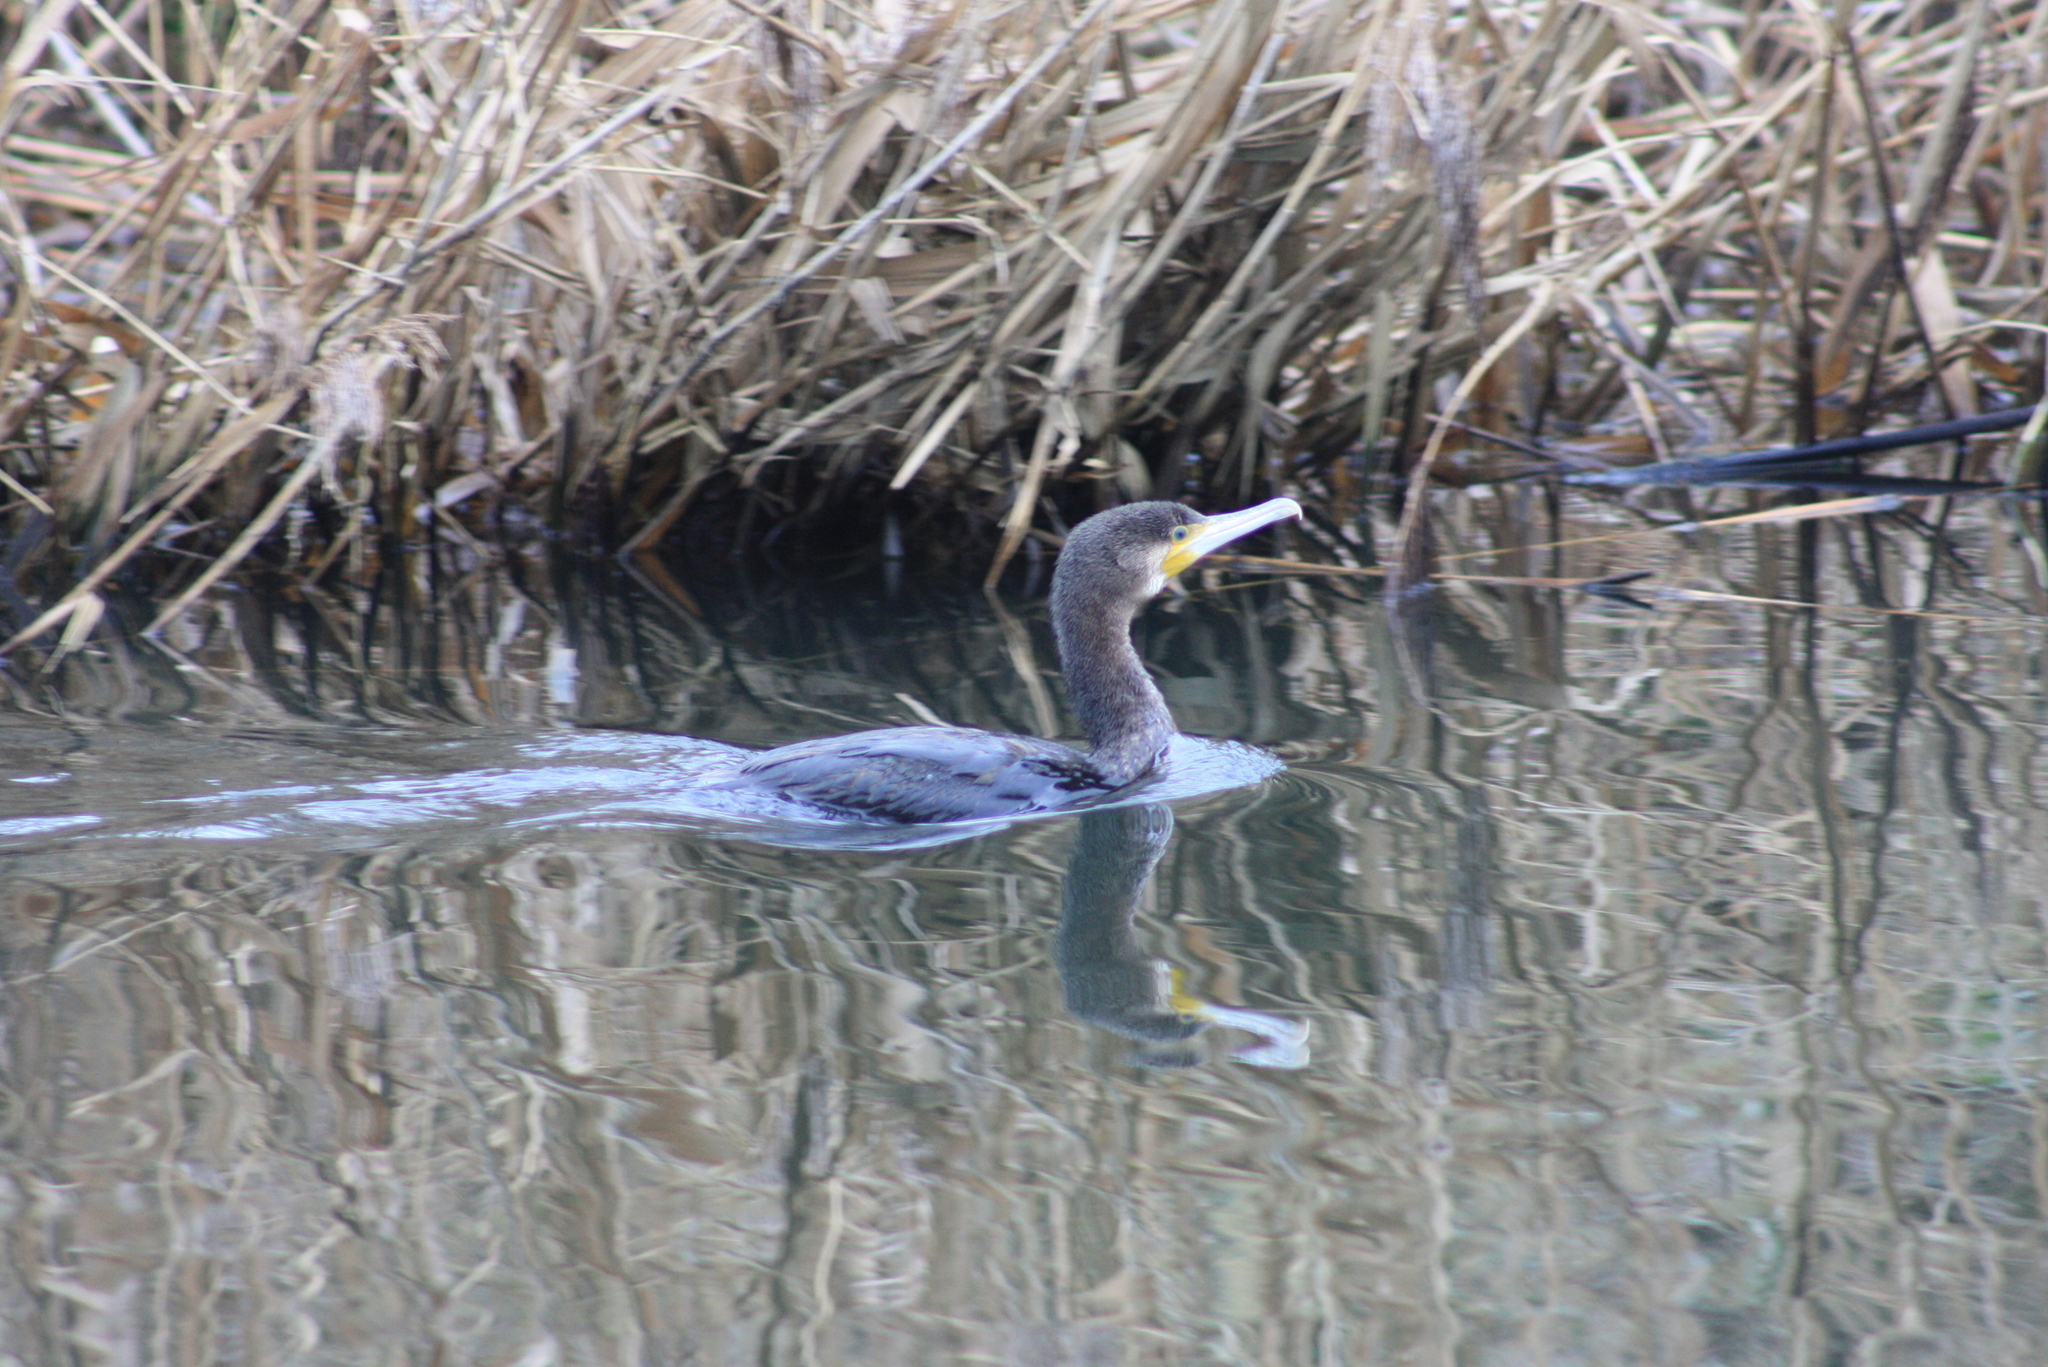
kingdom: Animalia
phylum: Chordata
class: Aves
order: Suliformes
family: Phalacrocoracidae
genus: Phalacrocorax
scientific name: Phalacrocorax carbo
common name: Great cormorant
